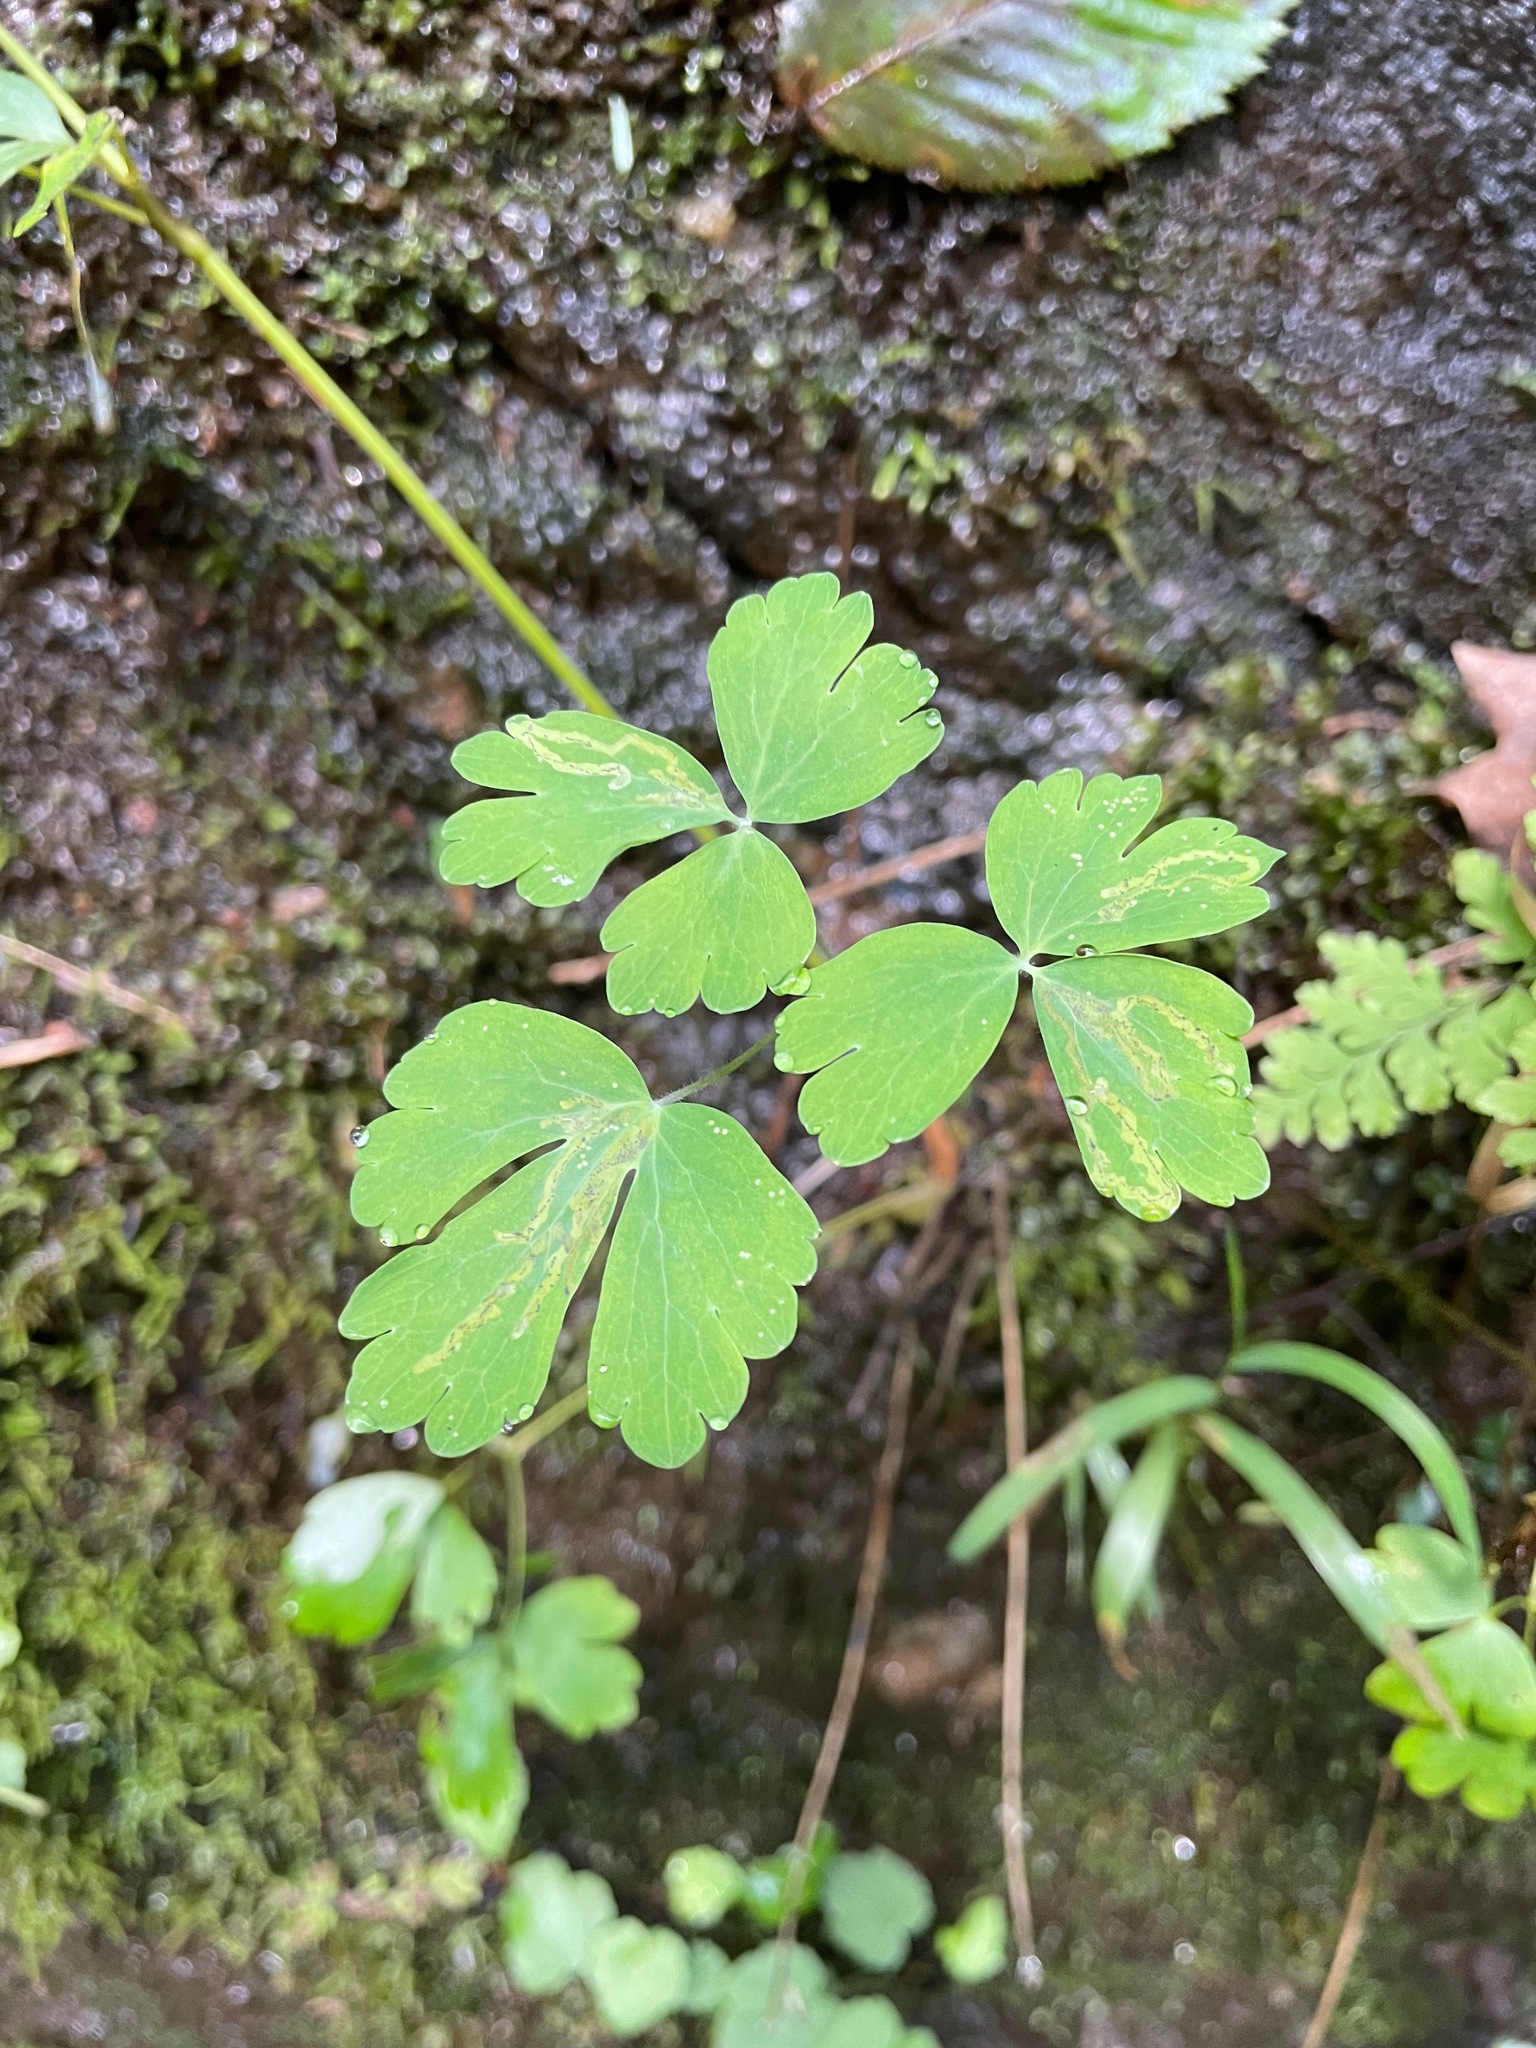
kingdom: Plantae
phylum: Tracheophyta
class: Magnoliopsida
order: Ranunculales
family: Ranunculaceae
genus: Aquilegia
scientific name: Aquilegia canadensis
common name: American columbine
